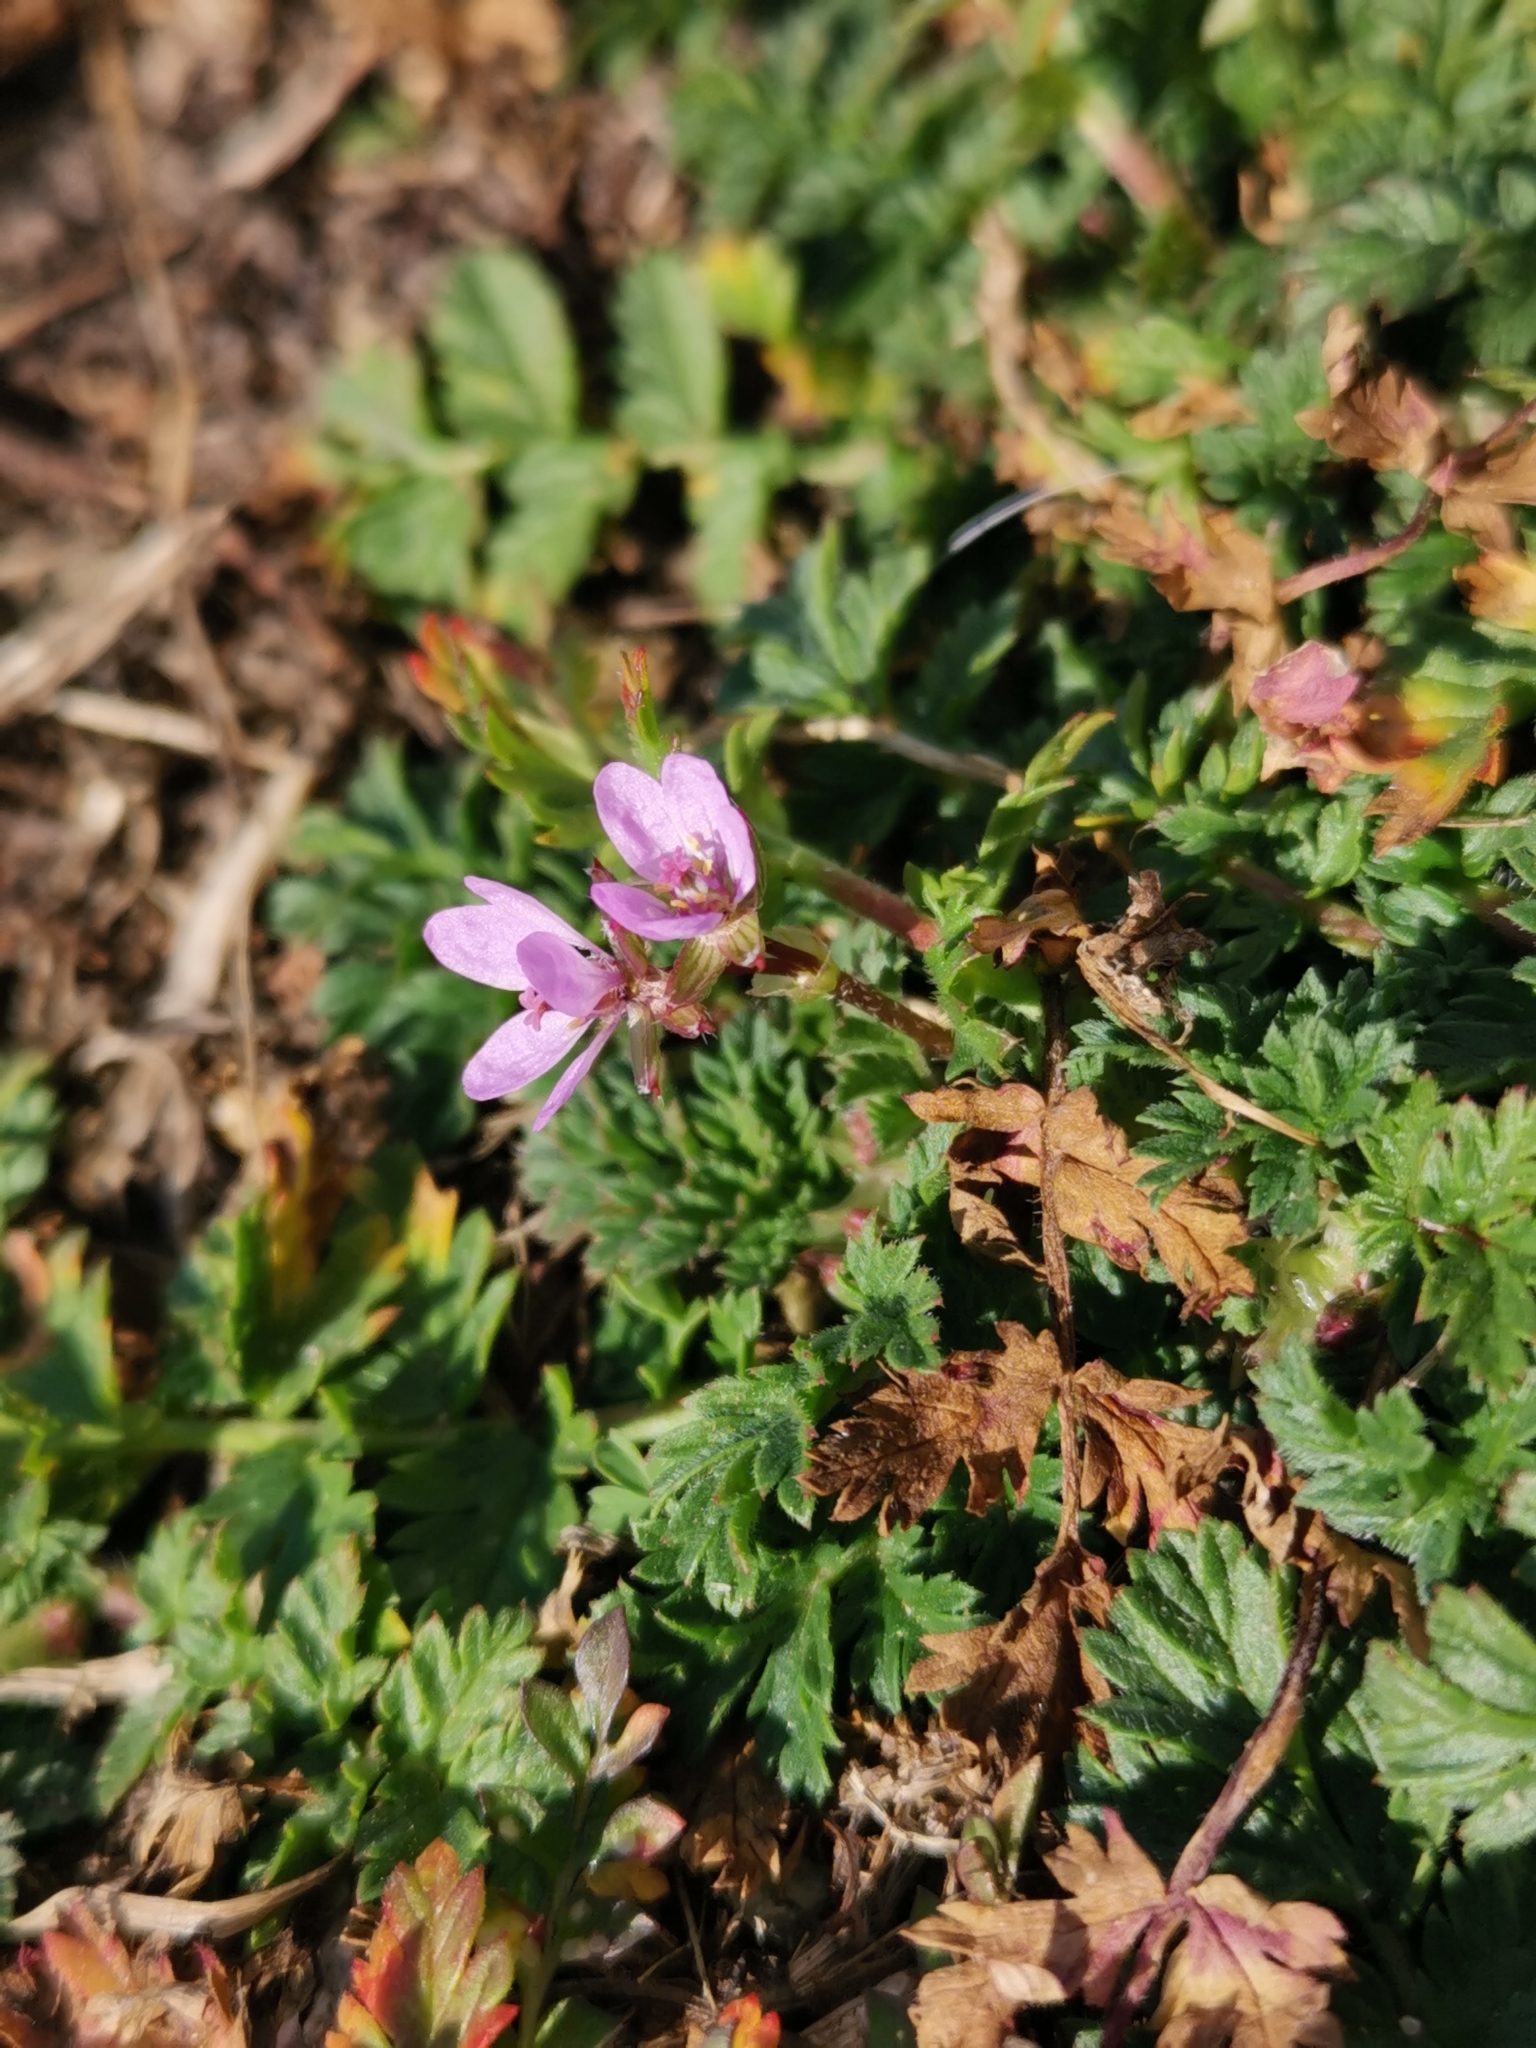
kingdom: Plantae
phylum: Tracheophyta
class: Magnoliopsida
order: Geraniales
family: Geraniaceae
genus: Erodium
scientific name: Erodium cicutarium
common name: Common stork's-bill
